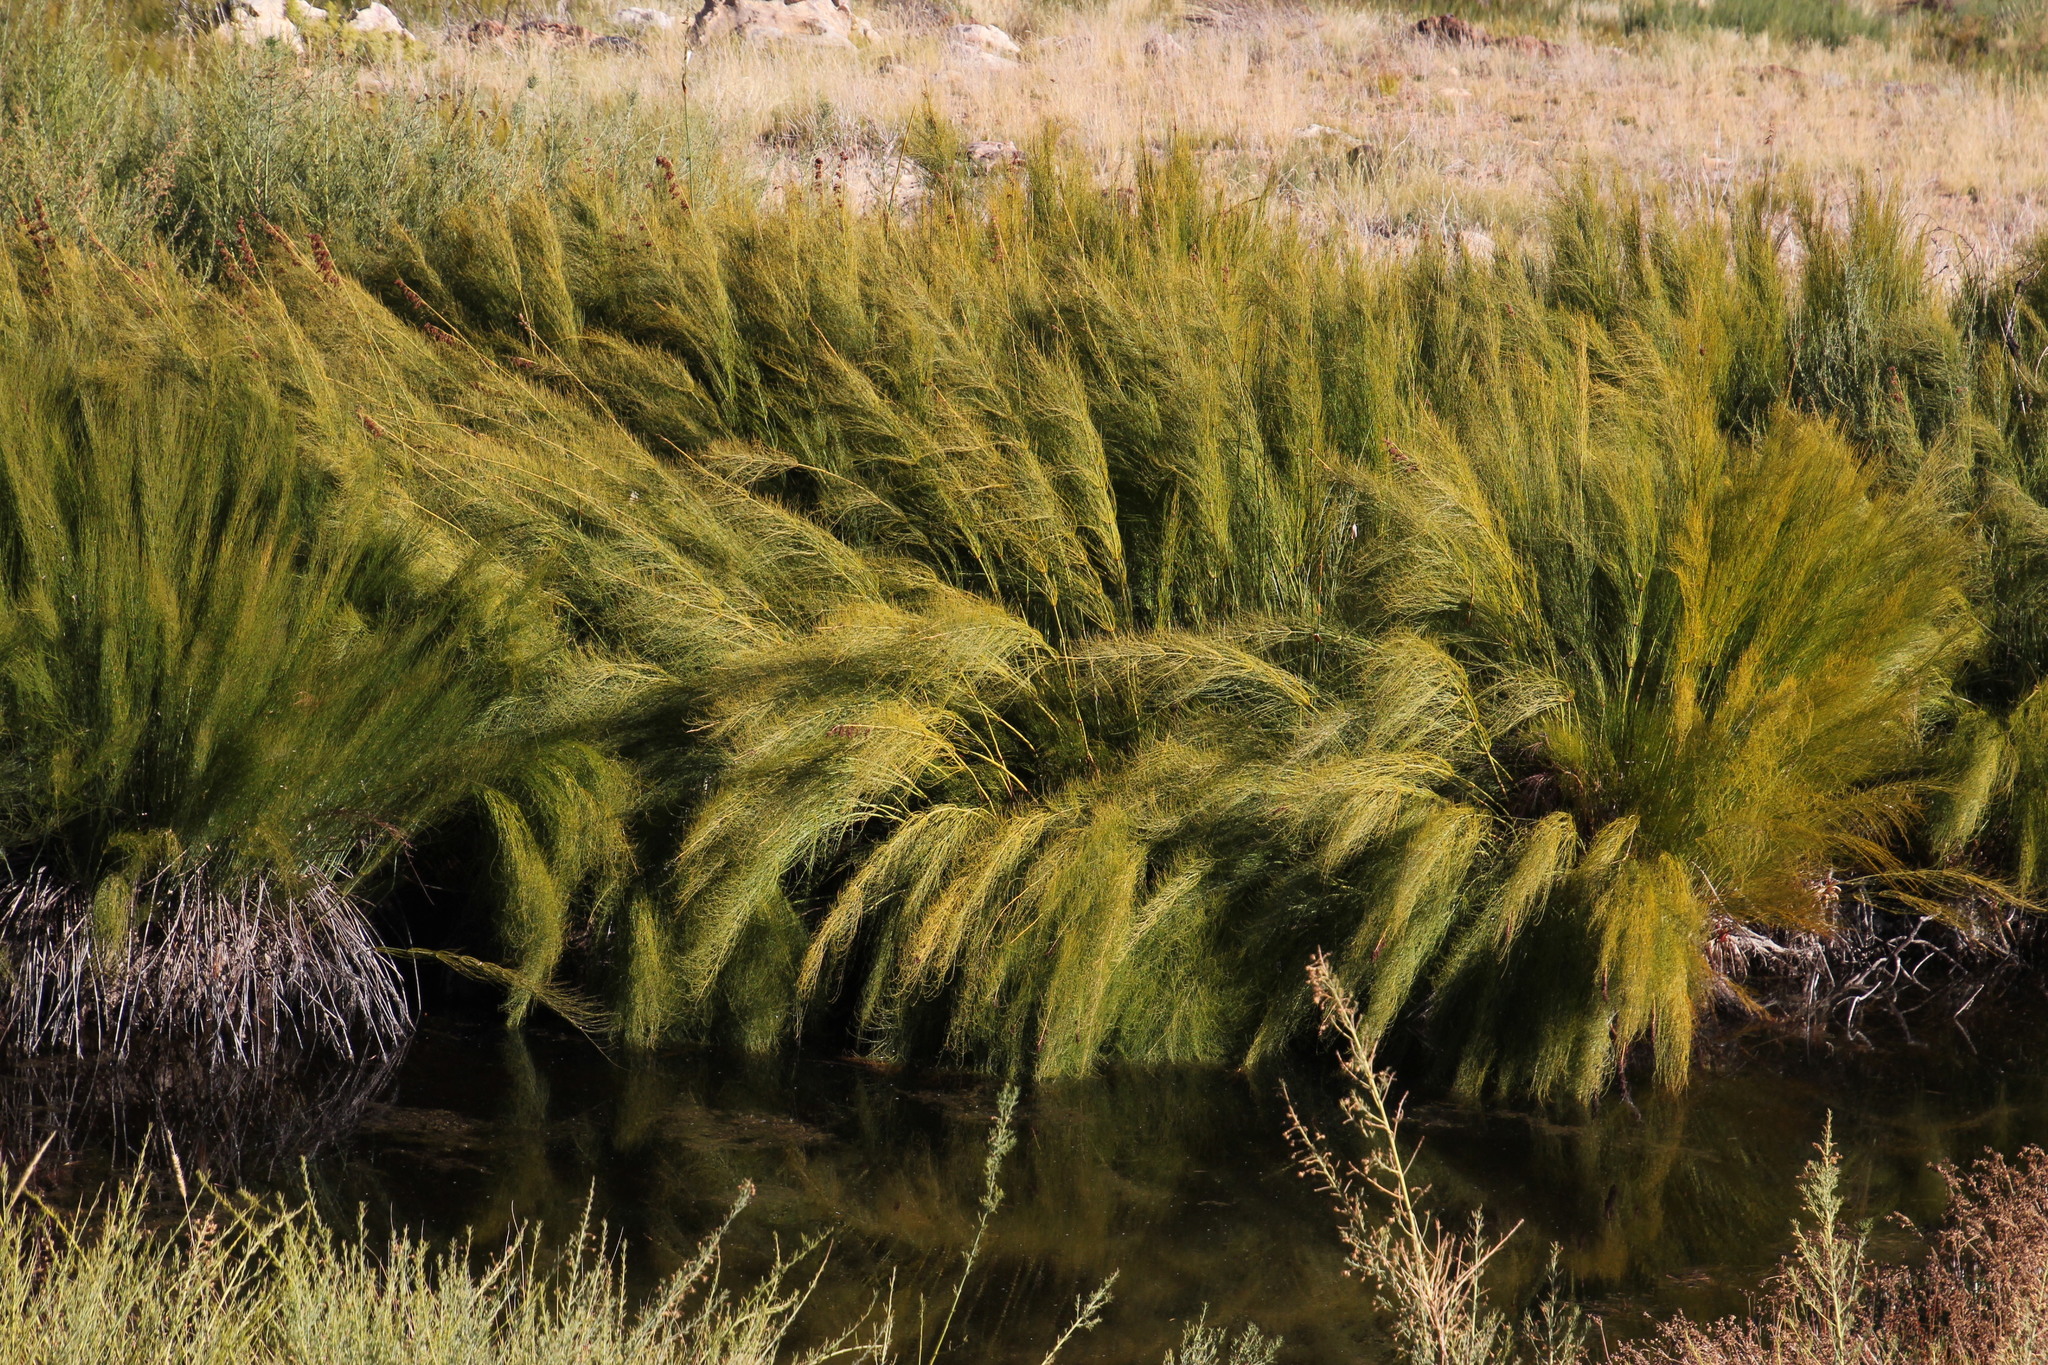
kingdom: Plantae
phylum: Tracheophyta
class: Liliopsida
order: Poales
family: Restionaceae
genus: Elegia
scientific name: Elegia capensis
